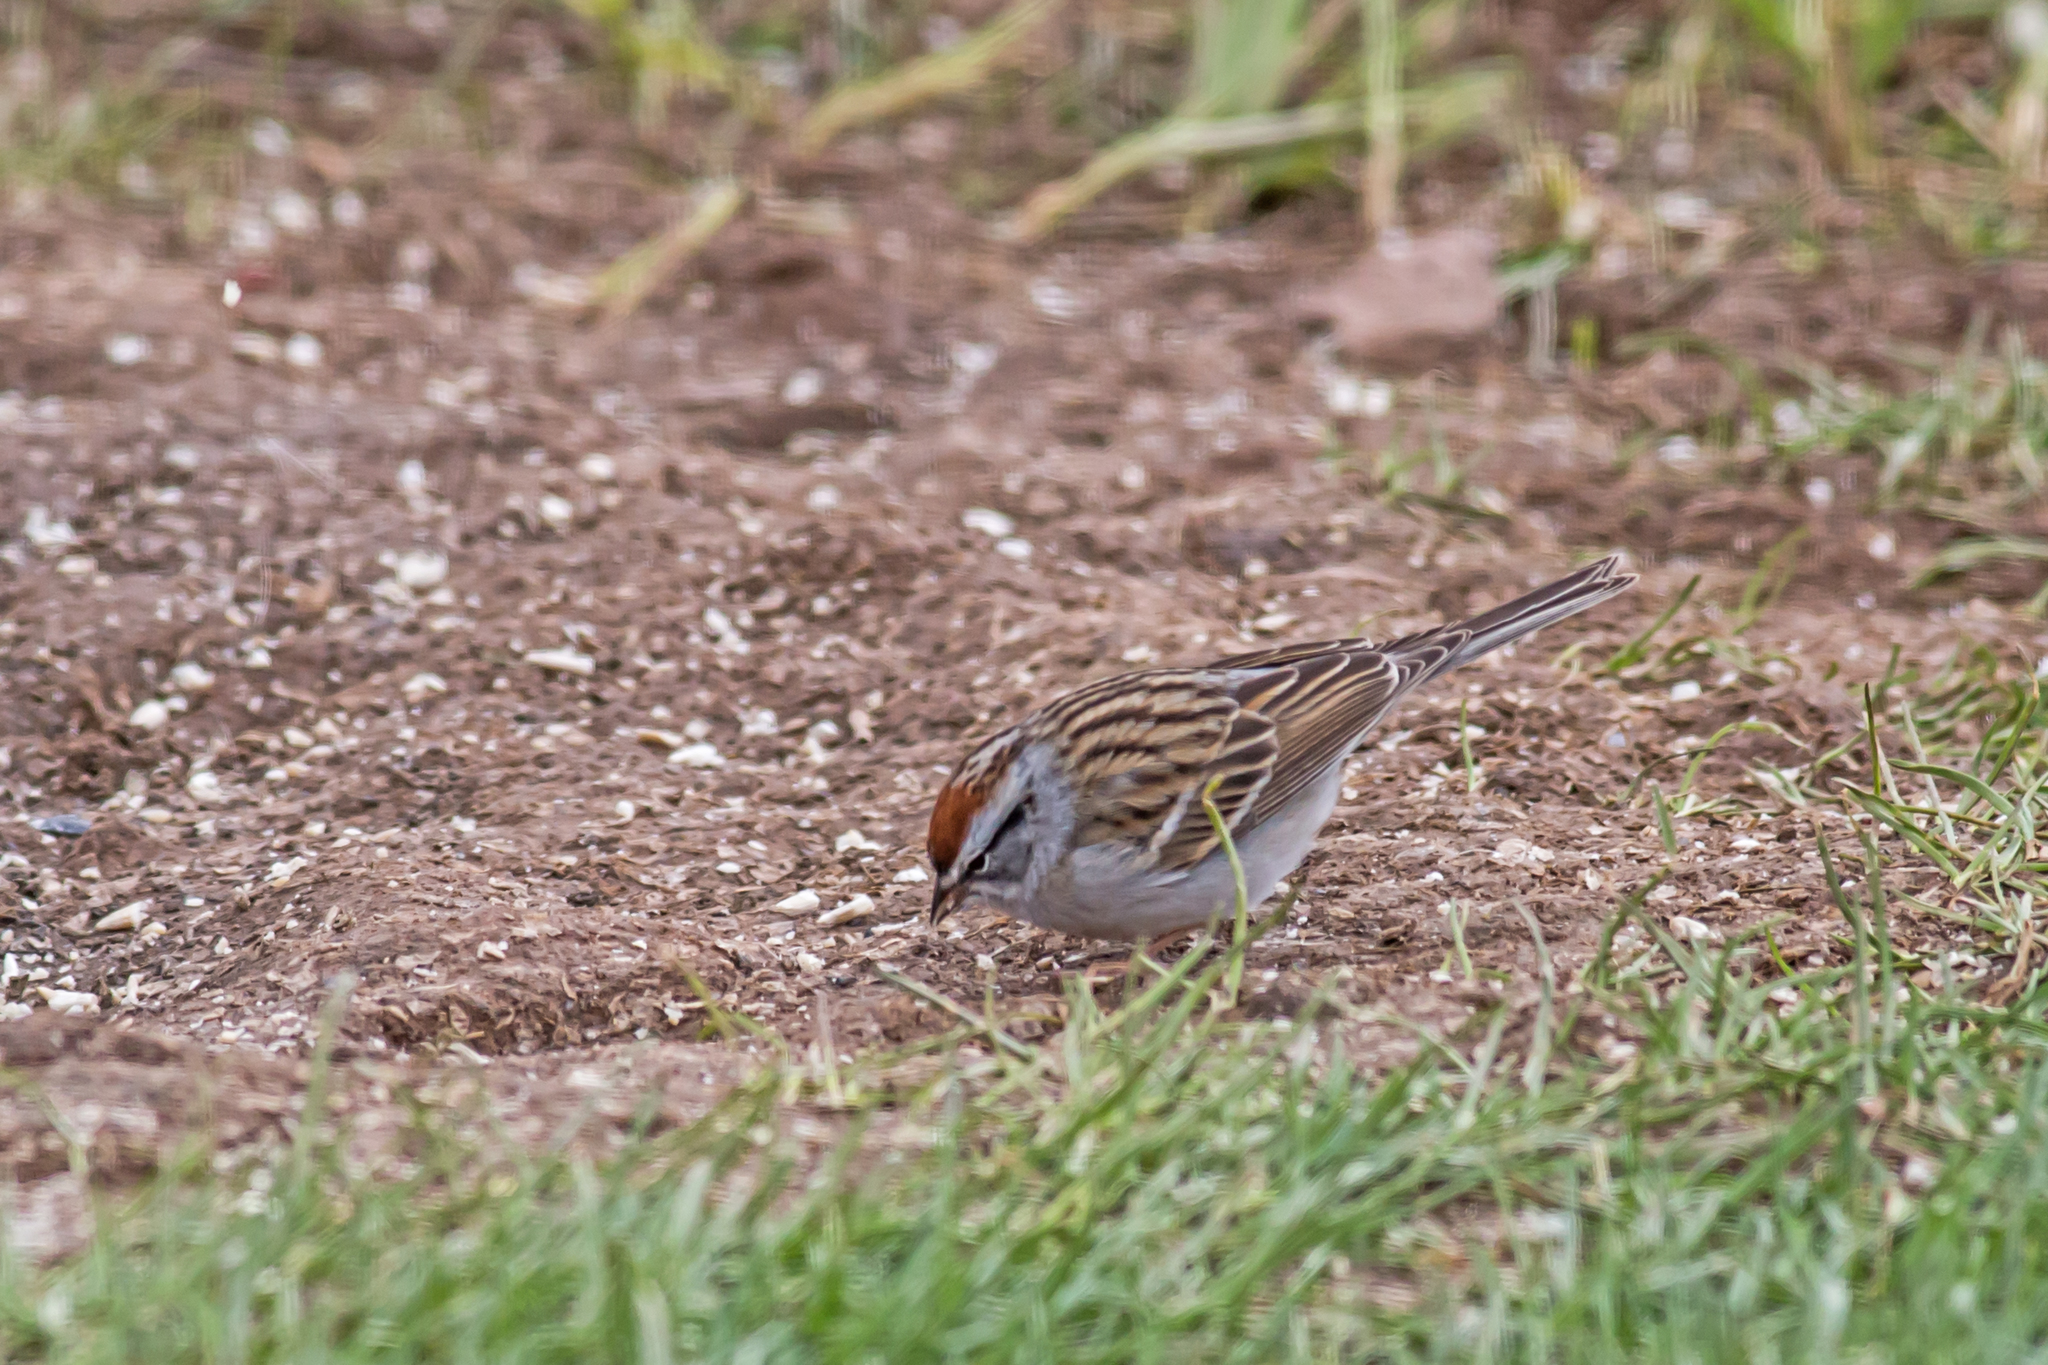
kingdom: Animalia
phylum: Chordata
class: Aves
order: Passeriformes
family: Passerellidae
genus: Spizella
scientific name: Spizella passerina
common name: Chipping sparrow
